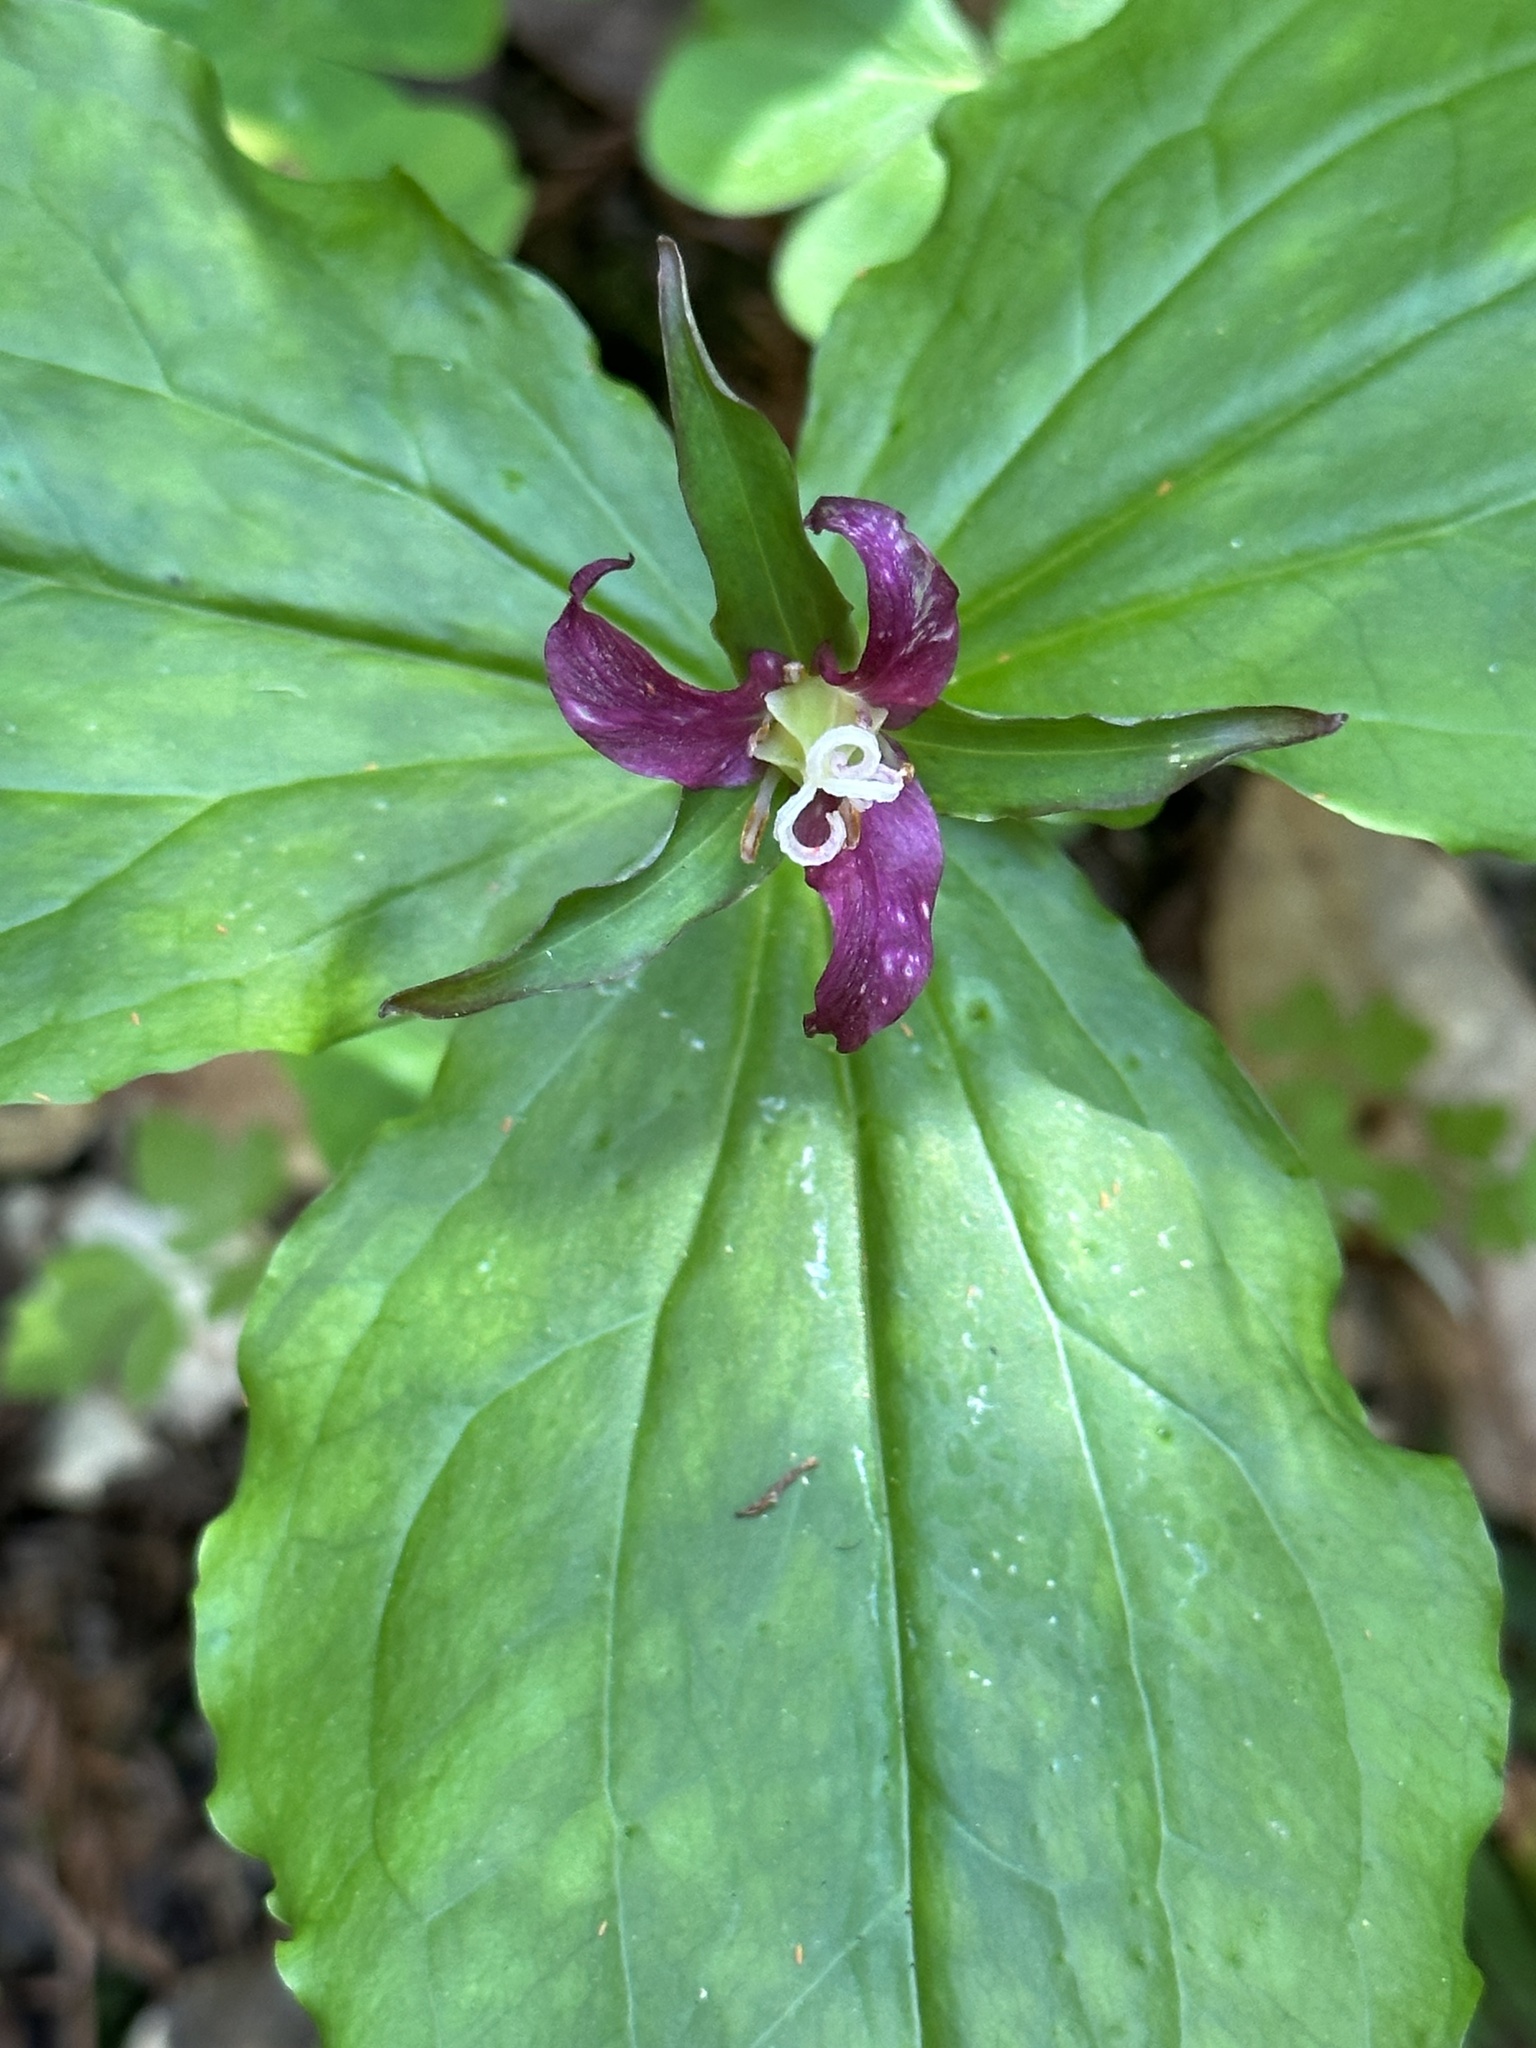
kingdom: Plantae
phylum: Tracheophyta
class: Liliopsida
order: Liliales
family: Melanthiaceae
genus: Trillium
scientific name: Trillium ovatum
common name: Pacific trillium
